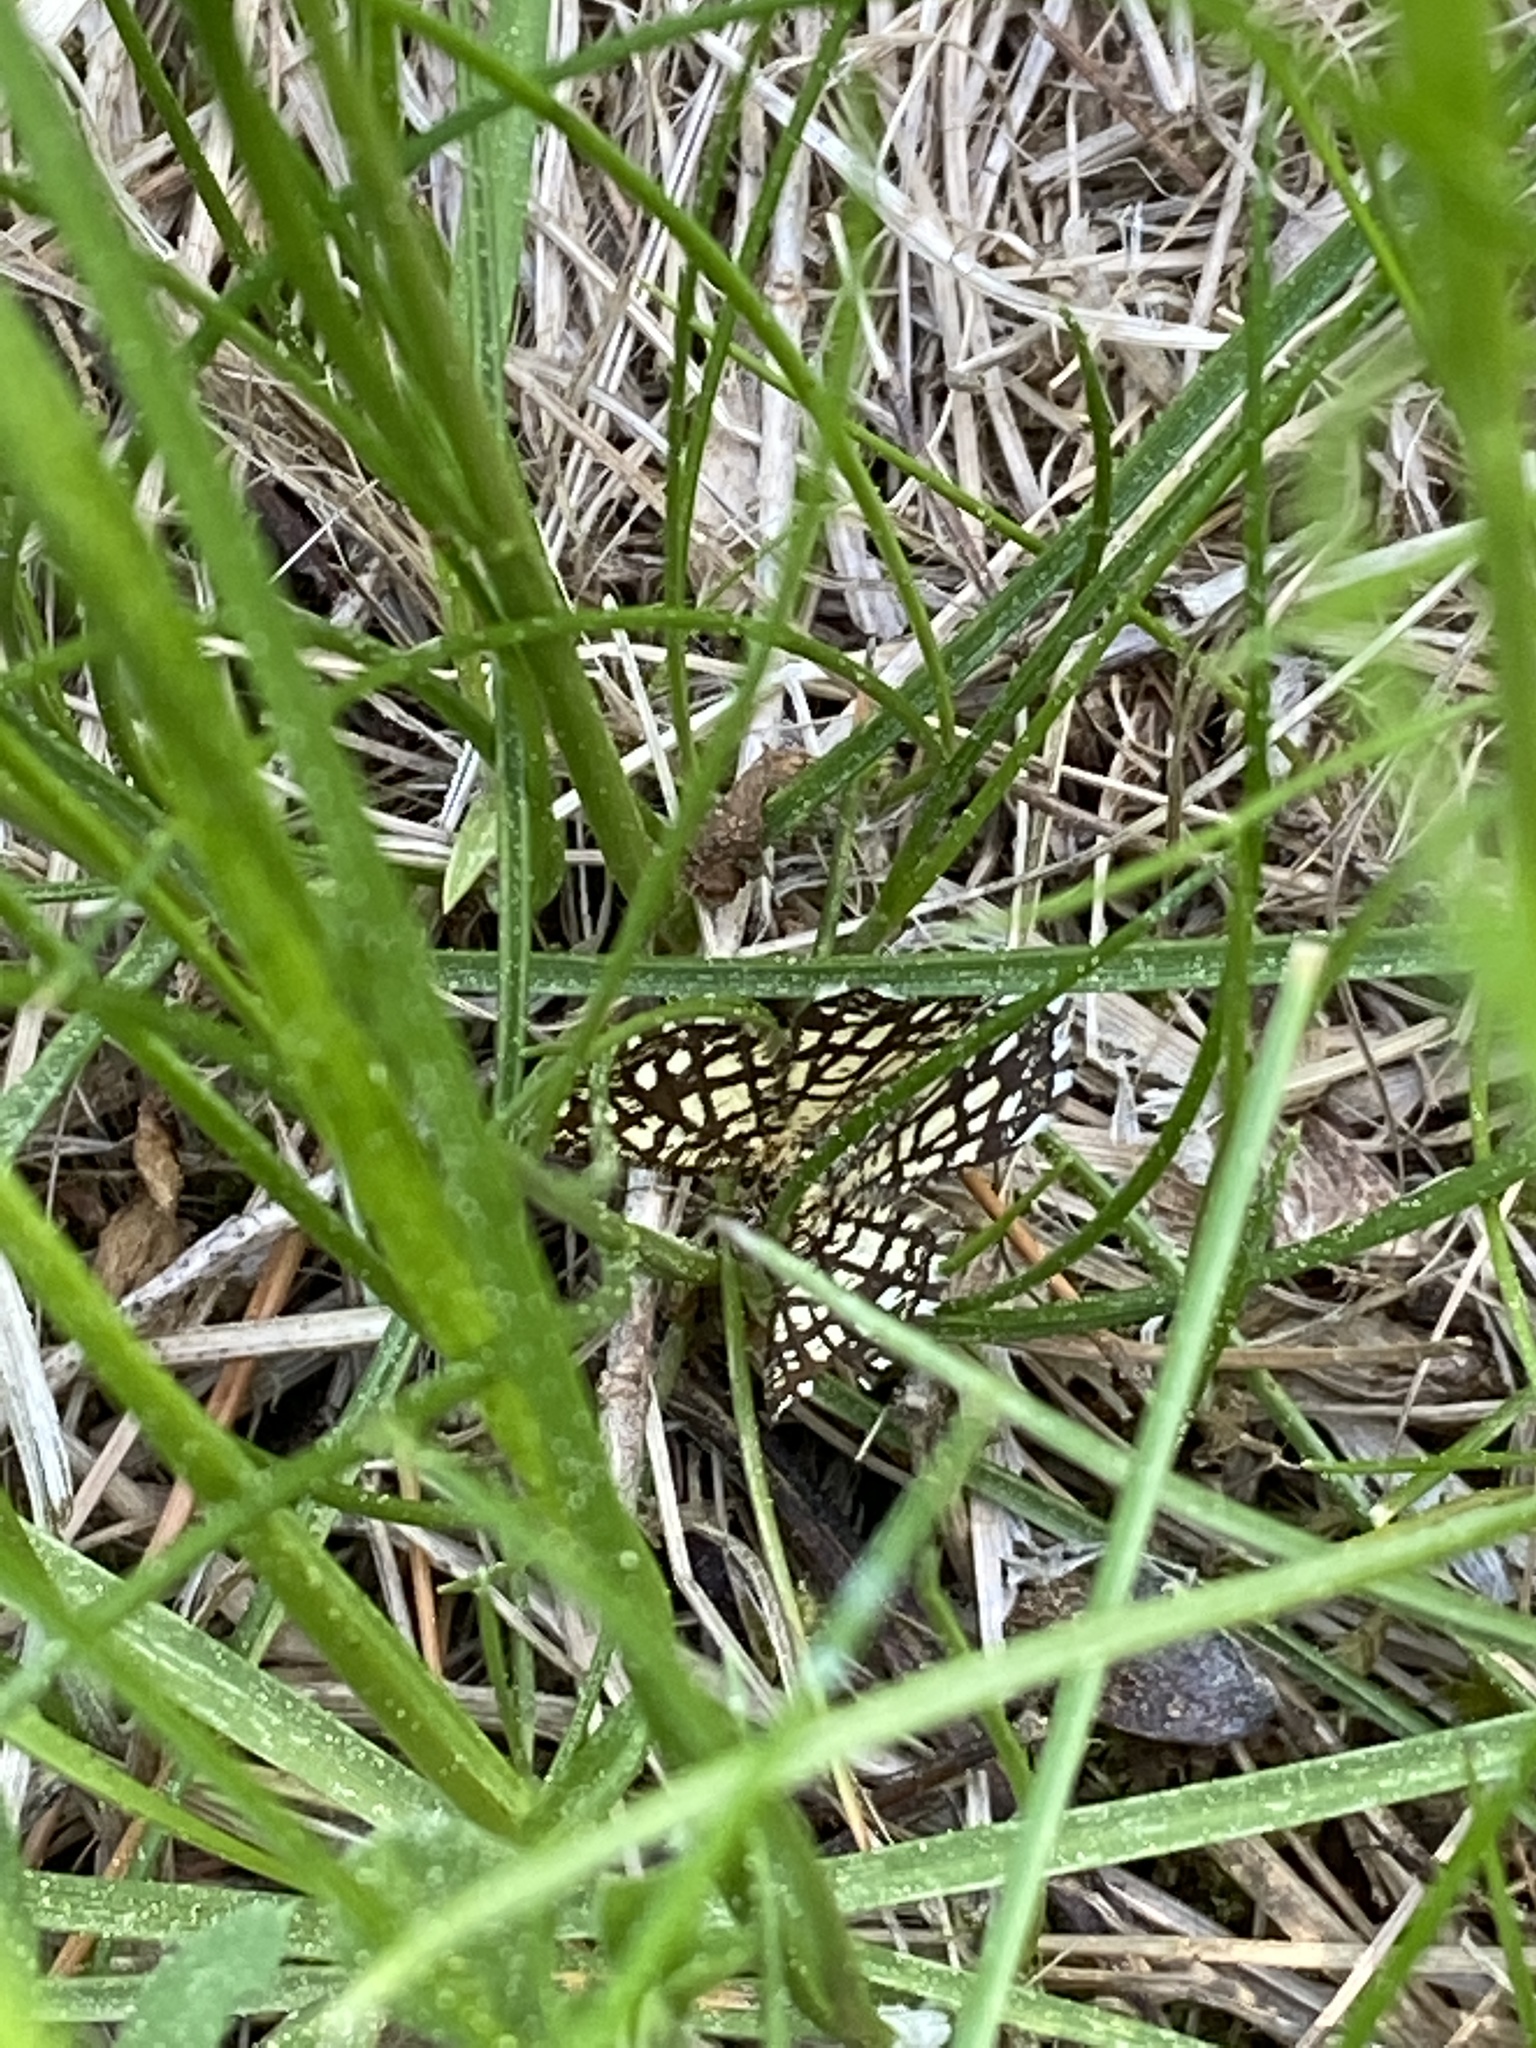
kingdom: Animalia
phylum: Arthropoda
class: Insecta
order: Lepidoptera
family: Geometridae
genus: Chiasmia
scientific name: Chiasmia clathrata
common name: Latticed heath
